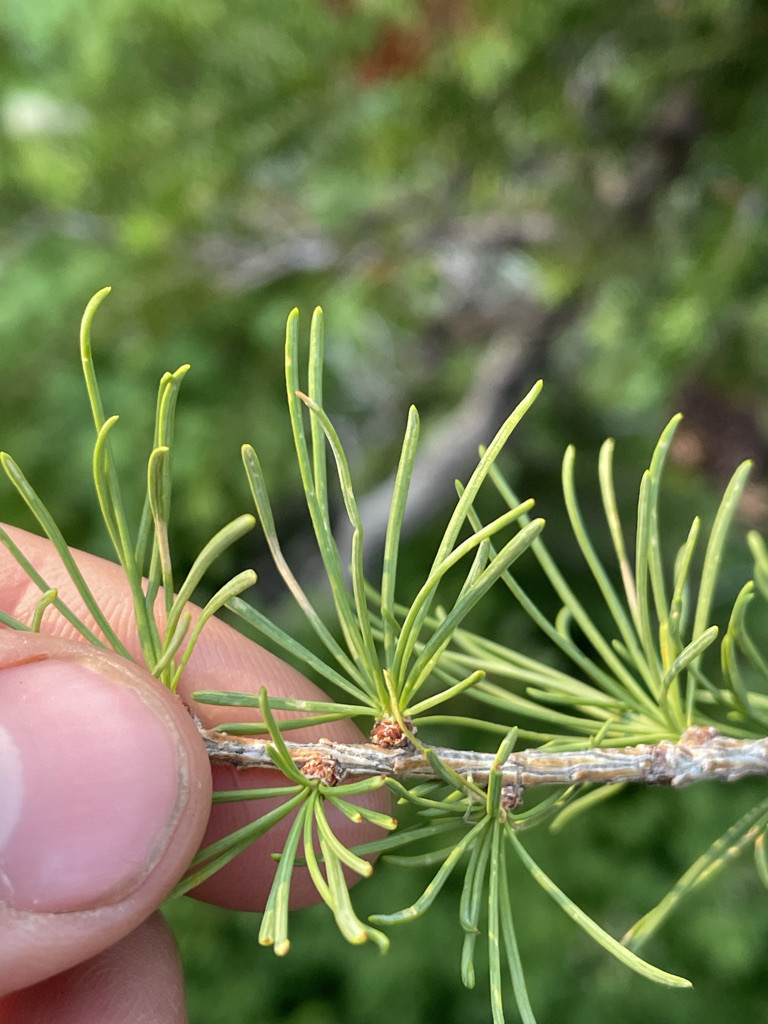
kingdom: Plantae
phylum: Tracheophyta
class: Pinopsida
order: Pinales
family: Pinaceae
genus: Larix
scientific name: Larix lyallii
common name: Alpine larch
